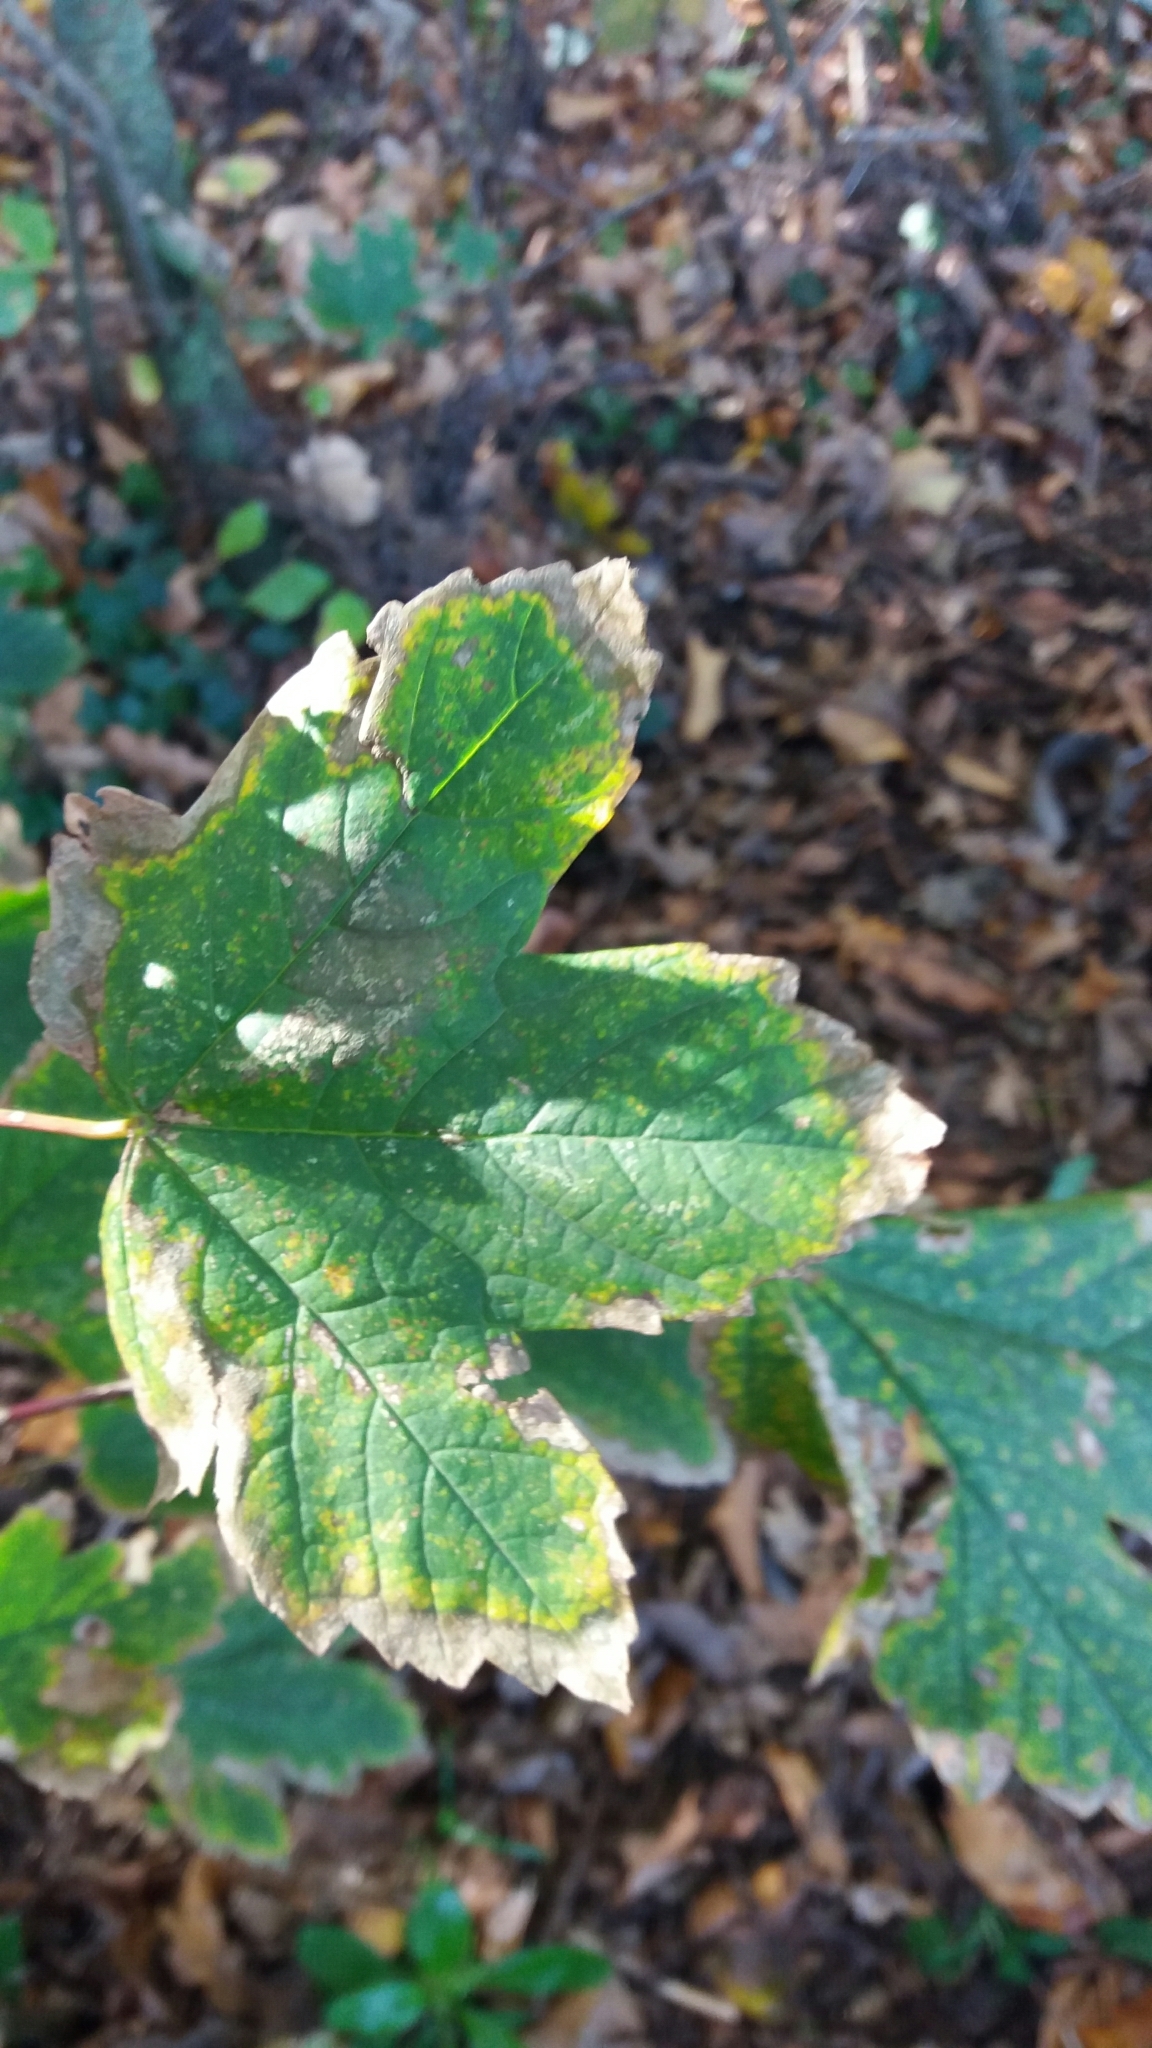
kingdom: Plantae
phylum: Tracheophyta
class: Magnoliopsida
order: Sapindales
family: Sapindaceae
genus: Acer
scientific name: Acer pseudoplatanus
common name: Sycamore
